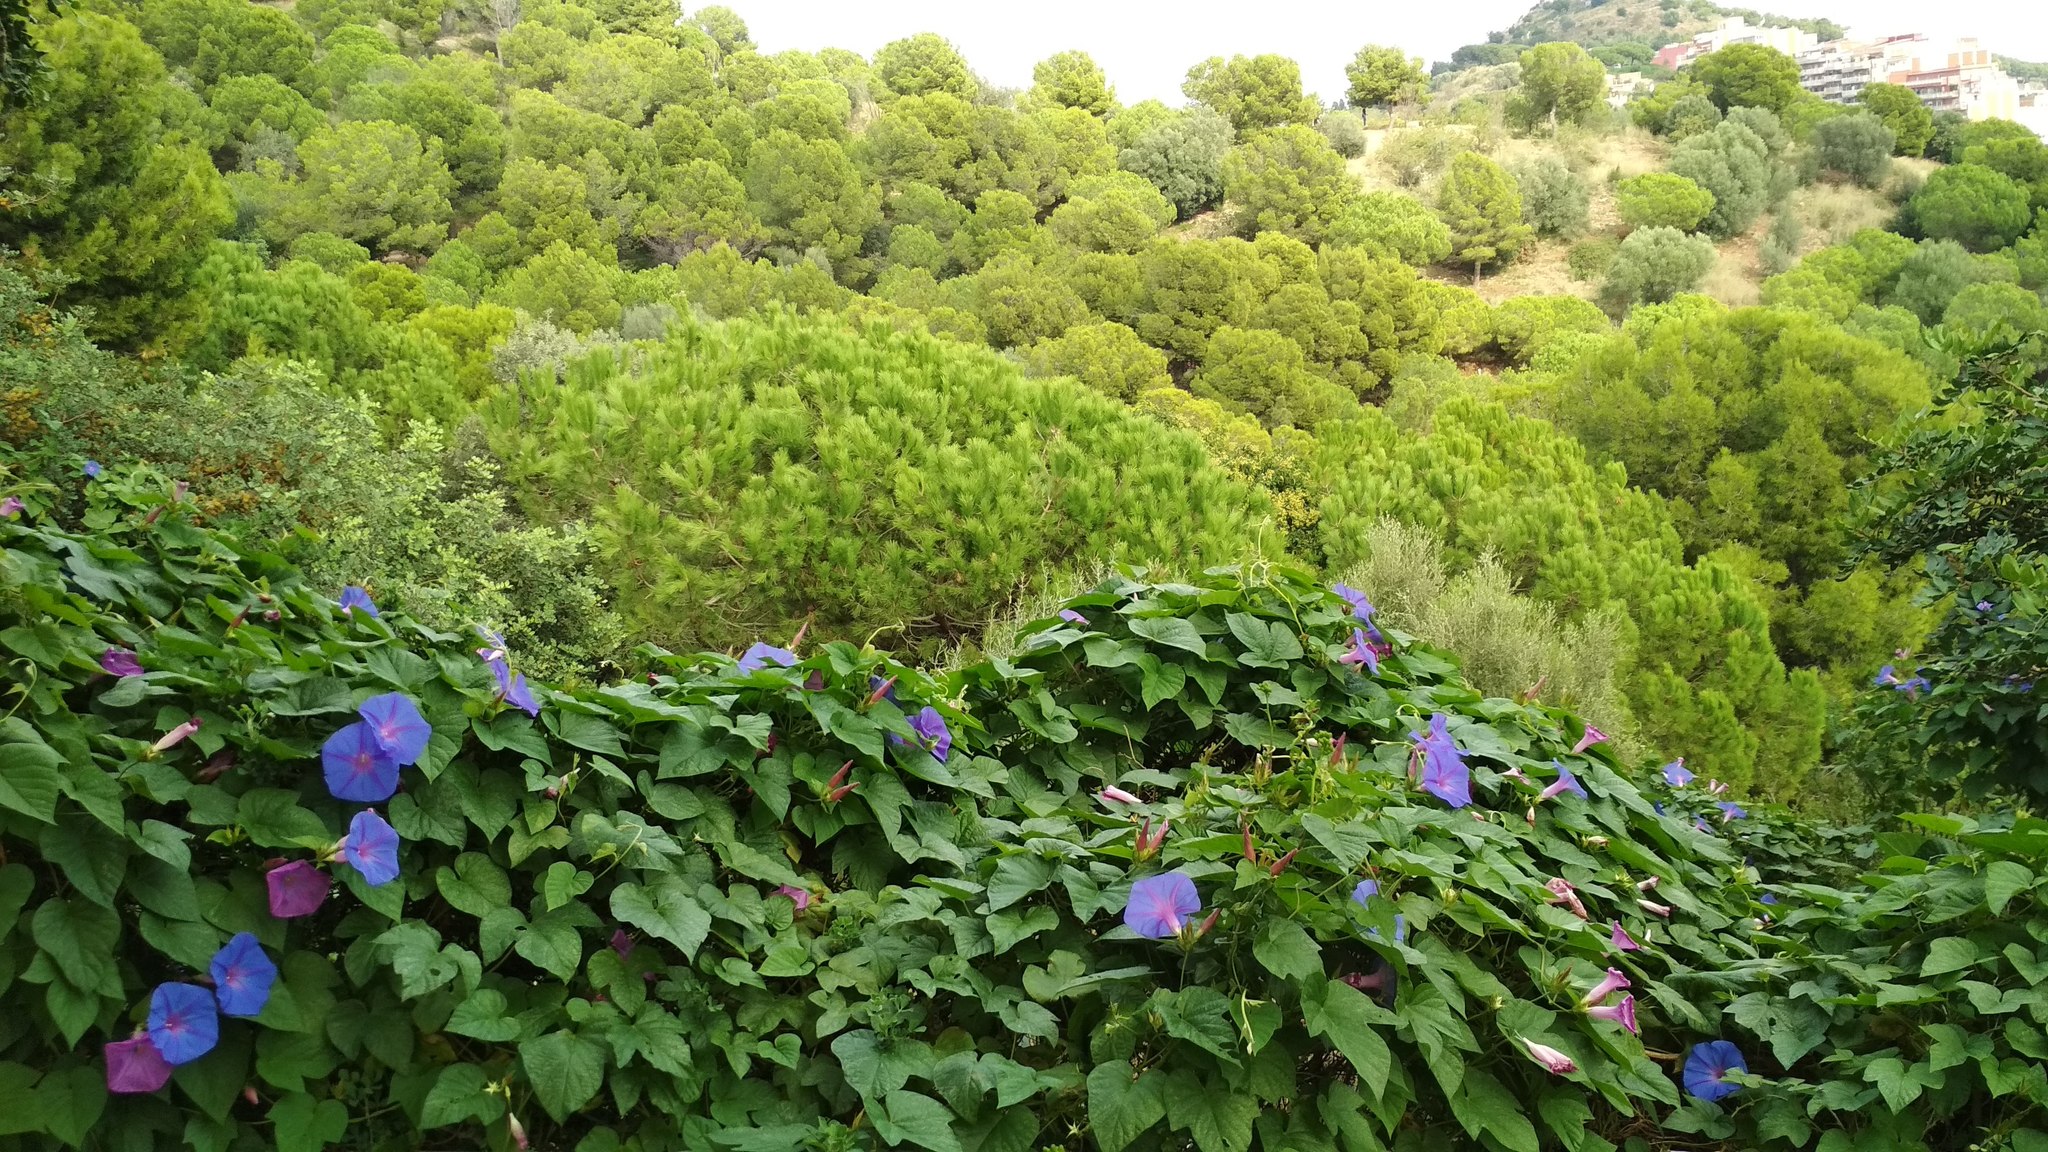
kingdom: Plantae
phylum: Tracheophyta
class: Magnoliopsida
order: Solanales
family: Convolvulaceae
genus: Ipomoea
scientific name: Ipomoea indica
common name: Blue dawnflower
